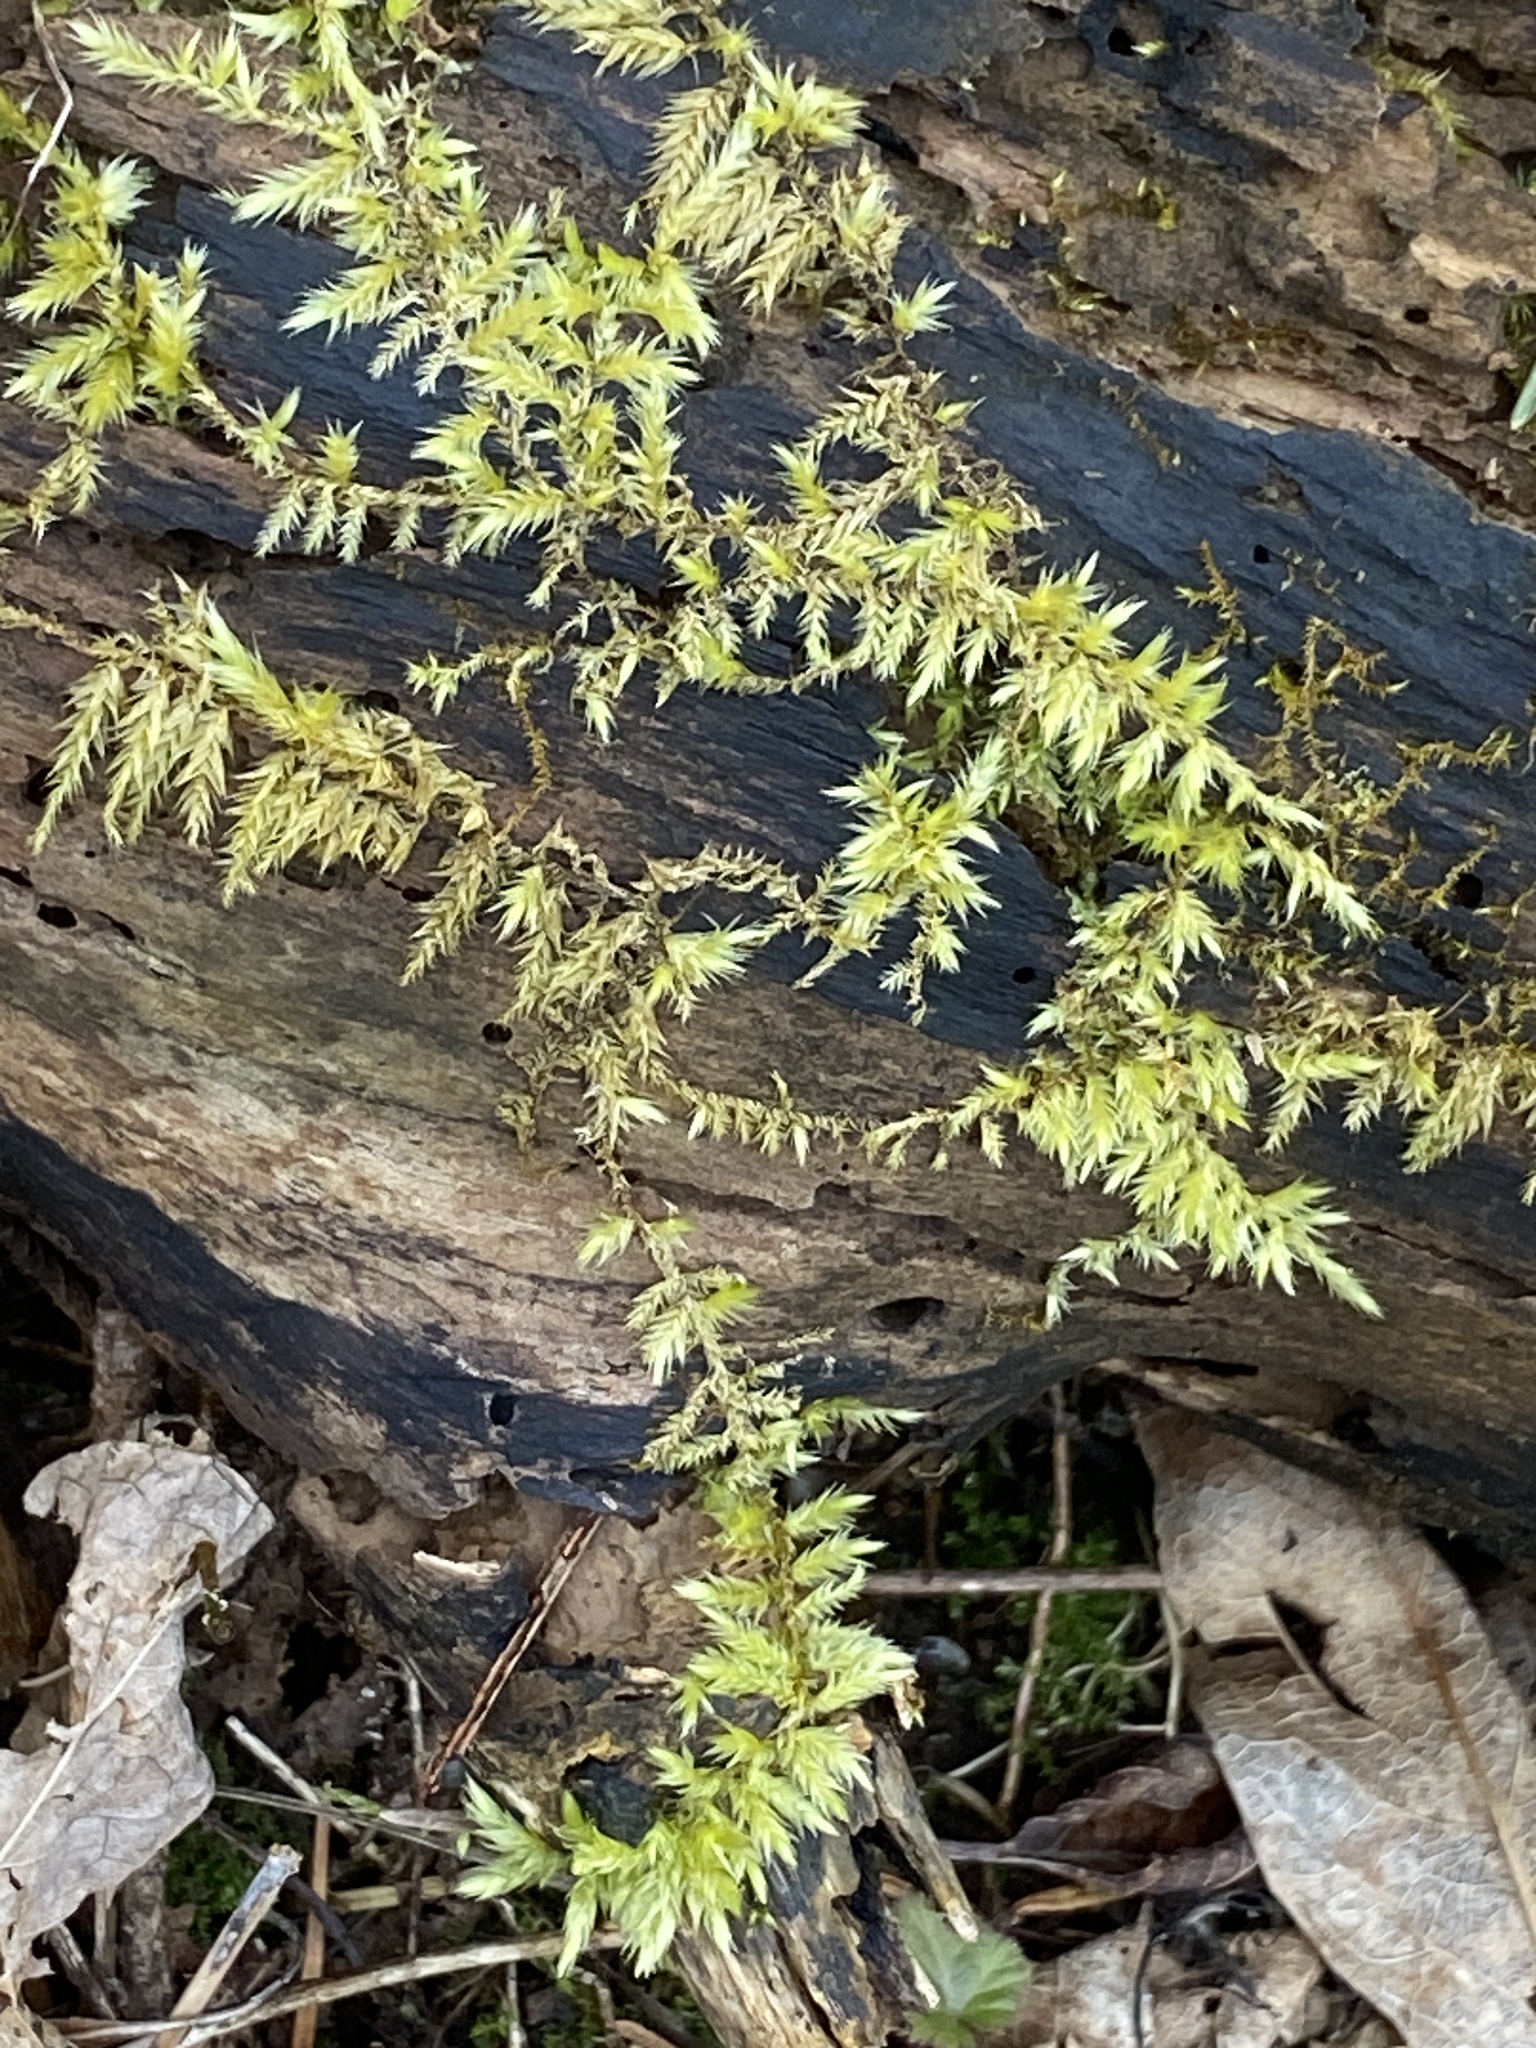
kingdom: Plantae
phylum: Bryophyta
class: Bryopsida
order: Hypnales
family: Callicladiaceae
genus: Callicladium
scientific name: Callicladium haldanianum
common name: Beautiful branch moss
